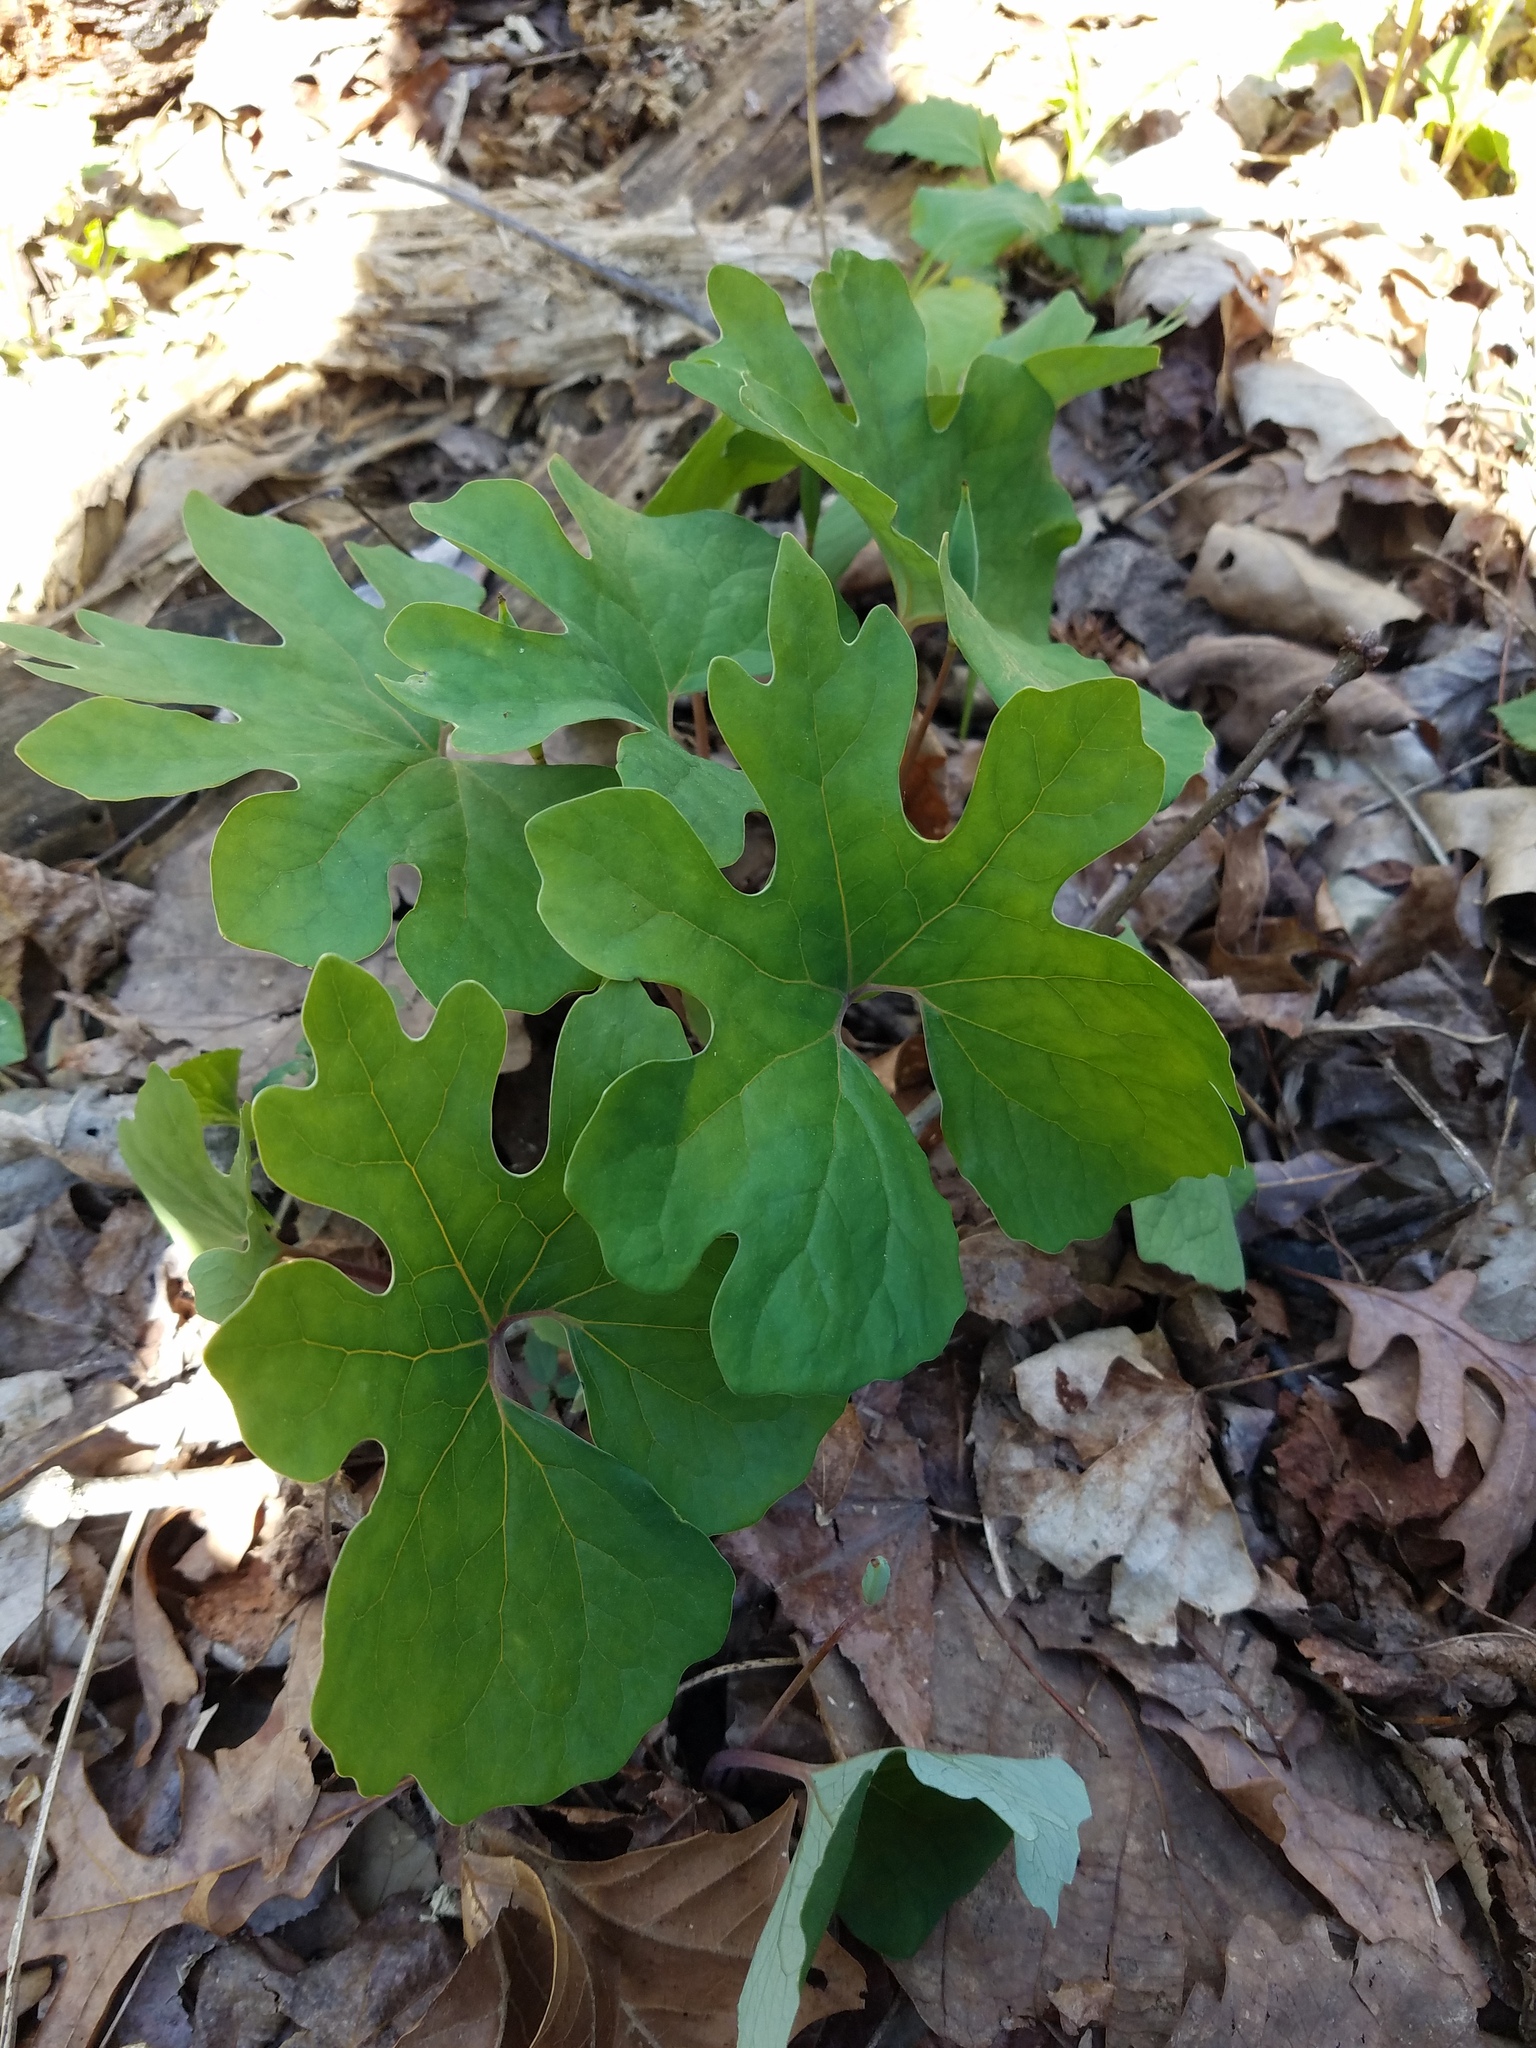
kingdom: Plantae
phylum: Tracheophyta
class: Magnoliopsida
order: Ranunculales
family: Papaveraceae
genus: Sanguinaria
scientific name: Sanguinaria canadensis
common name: Bloodroot
